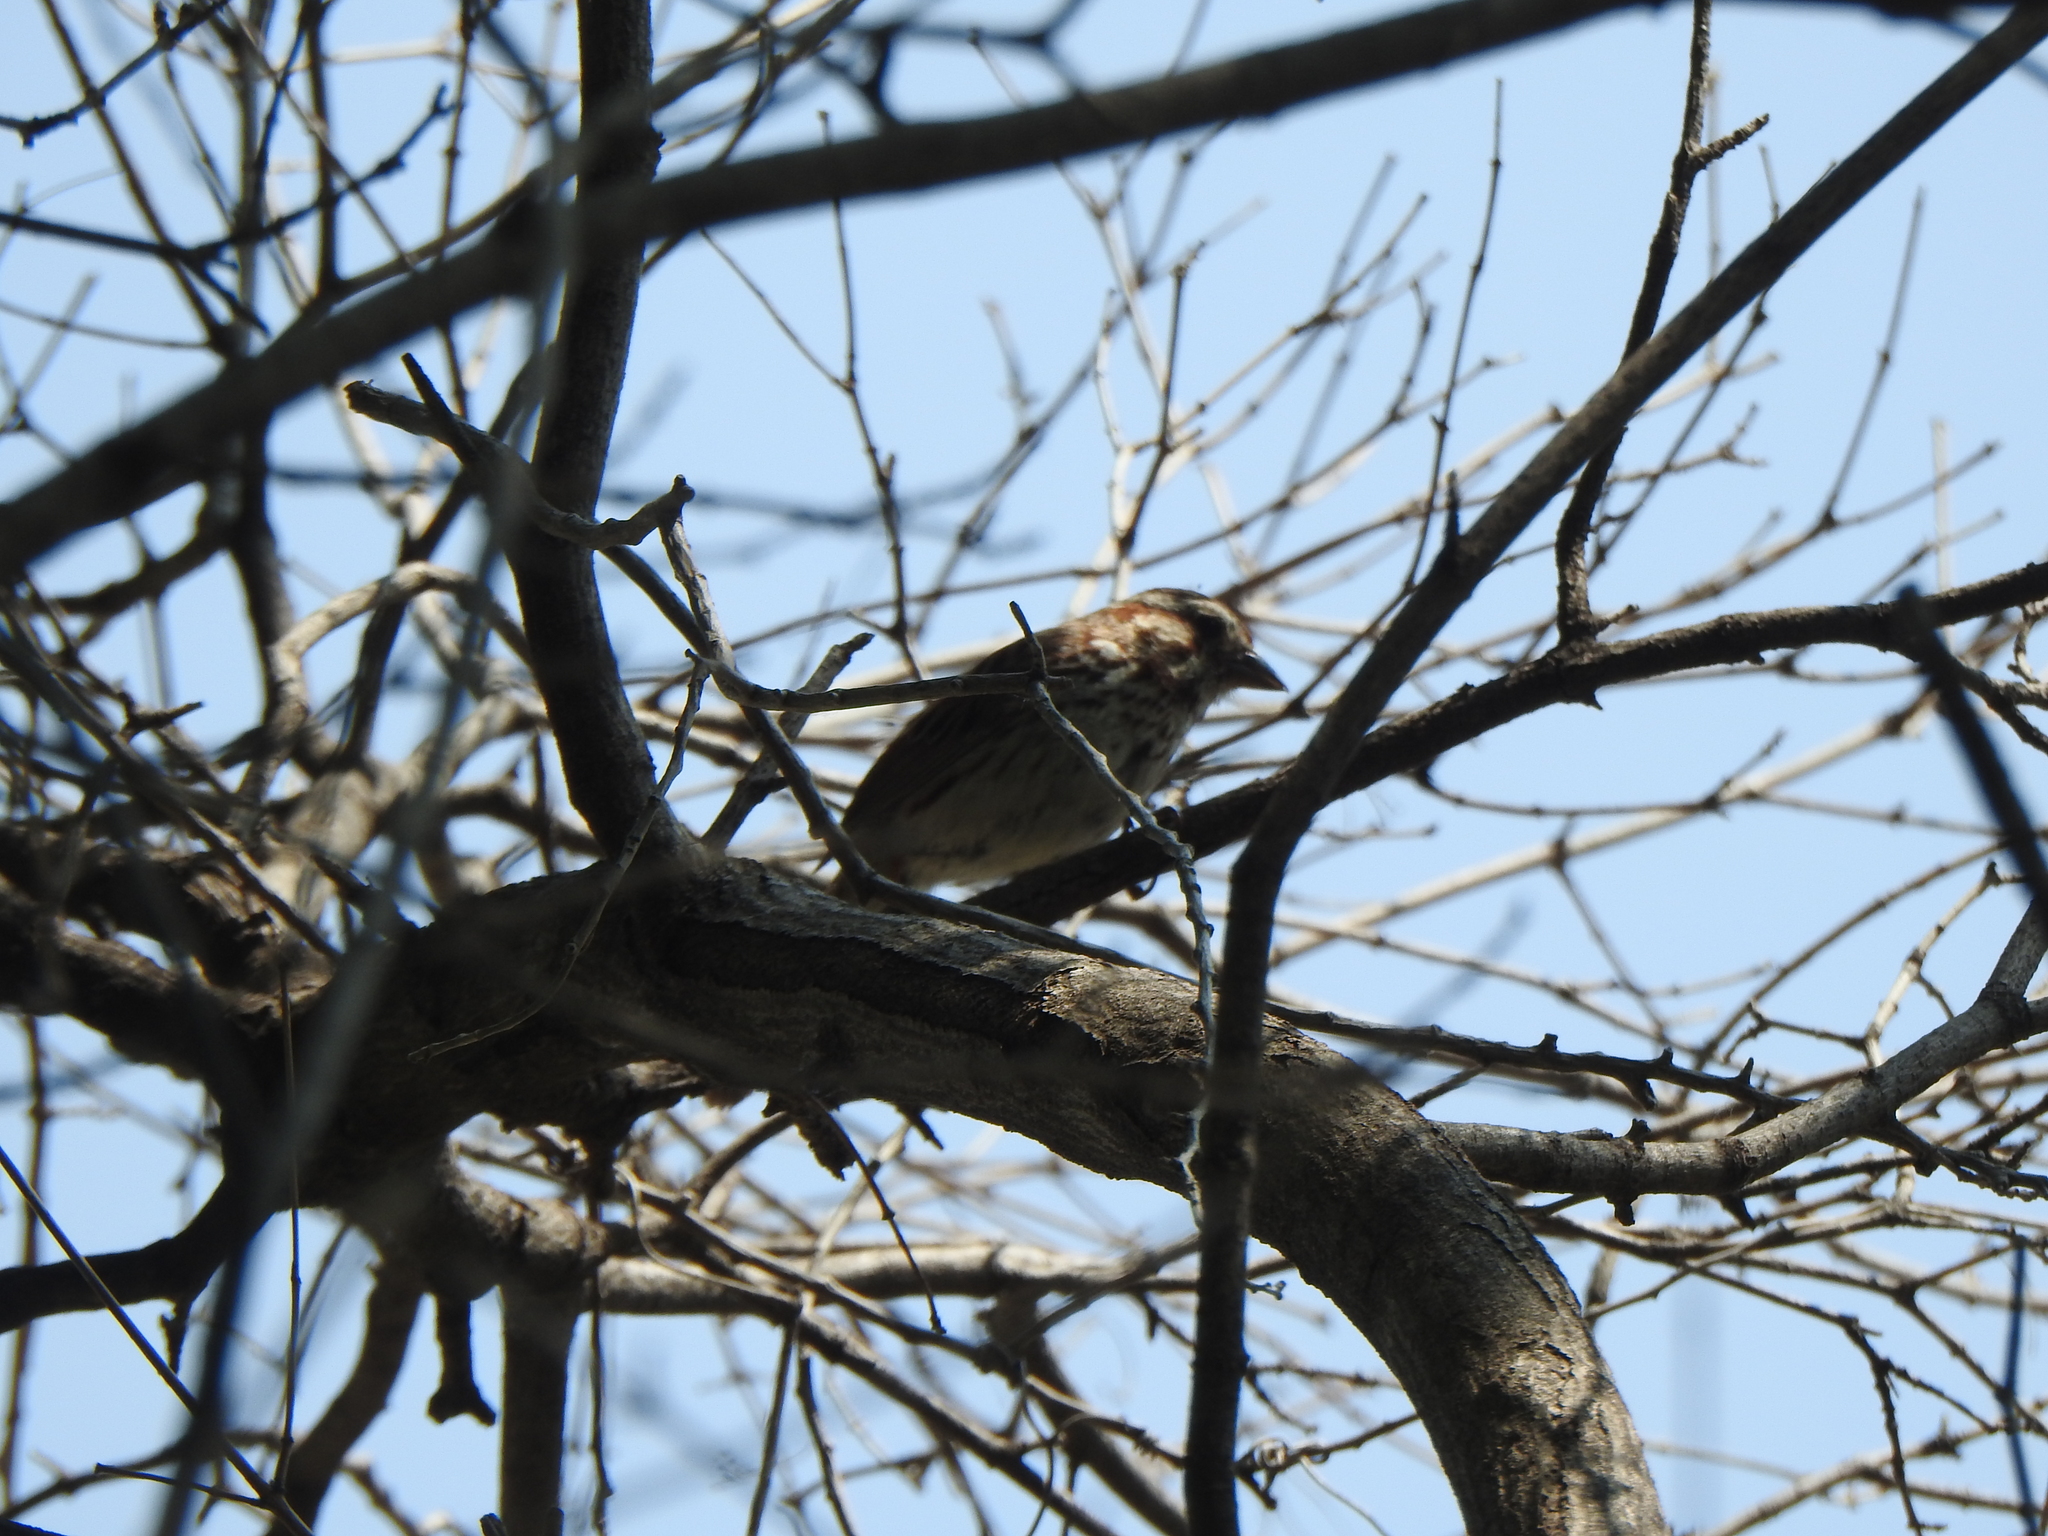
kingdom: Animalia
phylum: Chordata
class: Aves
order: Passeriformes
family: Passerellidae
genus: Melospiza
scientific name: Melospiza melodia
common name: Song sparrow
